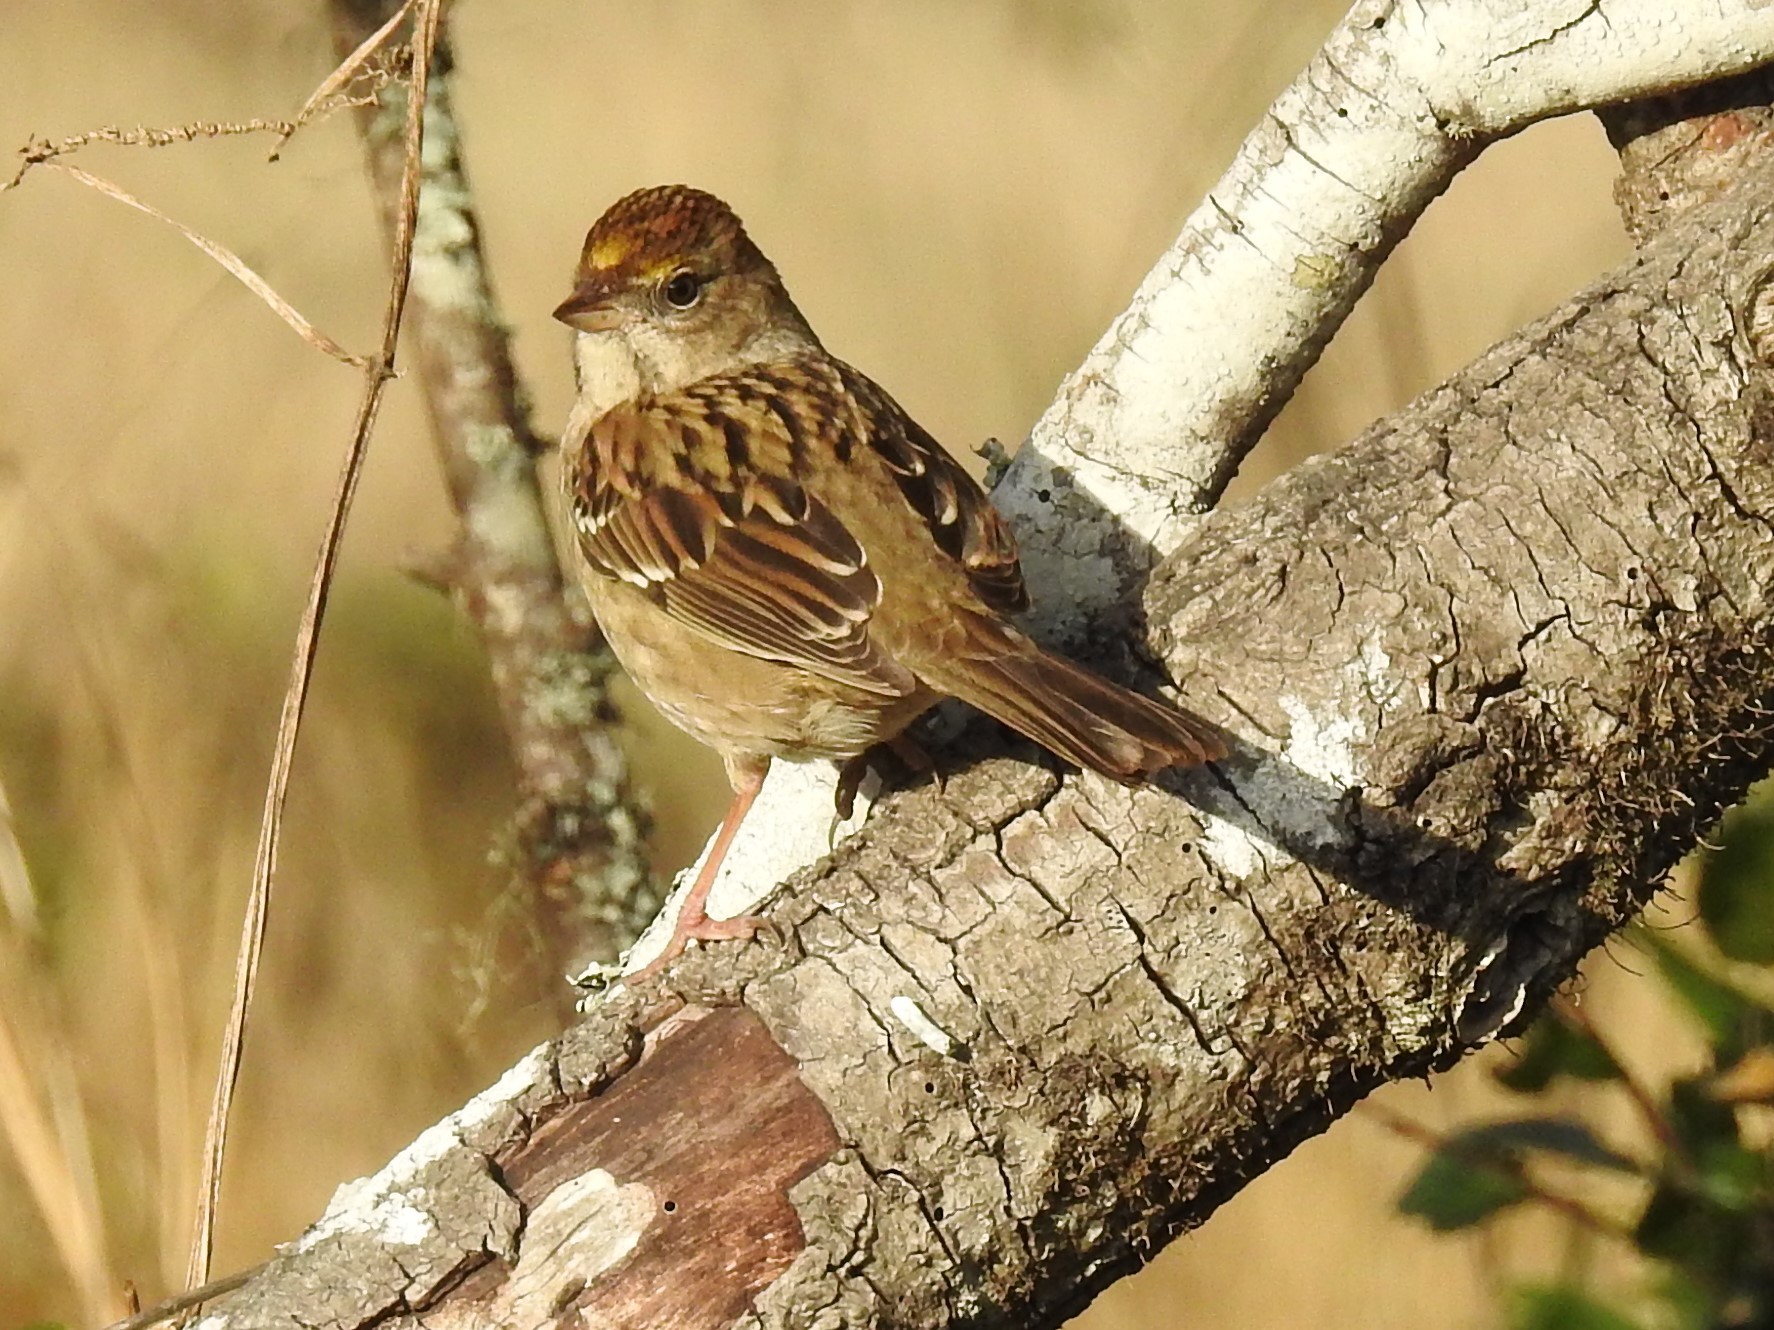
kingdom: Animalia
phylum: Chordata
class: Aves
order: Passeriformes
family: Passerellidae
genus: Zonotrichia
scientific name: Zonotrichia atricapilla
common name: Golden-crowned sparrow
